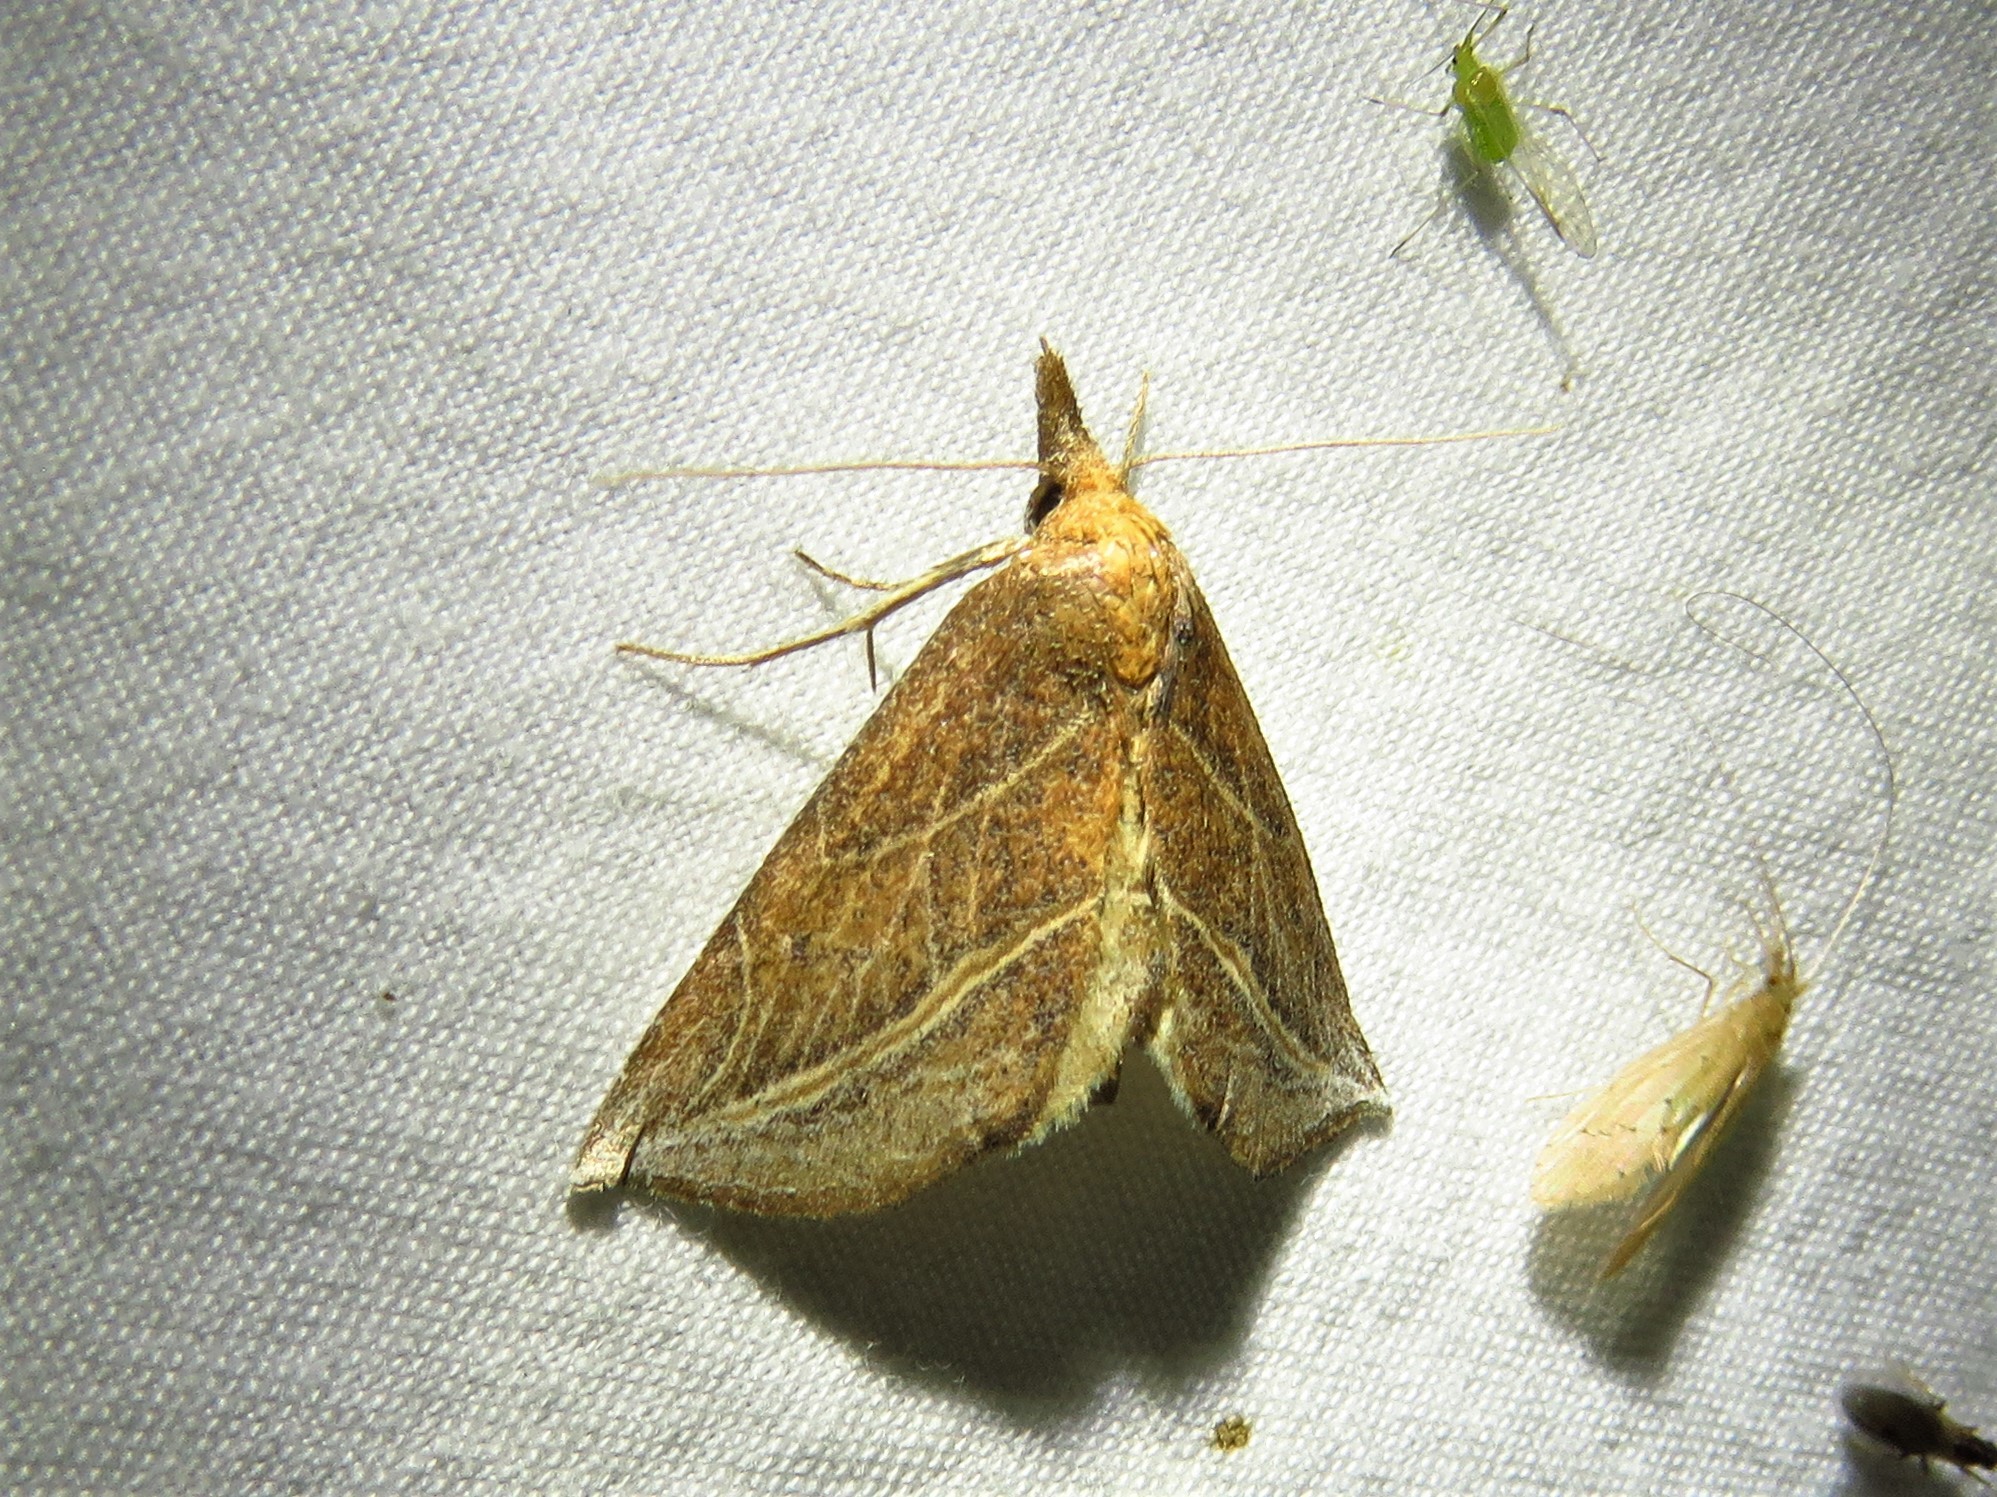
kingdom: Animalia
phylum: Arthropoda
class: Insecta
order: Lepidoptera
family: Erebidae
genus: Phyprosopus
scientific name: Phyprosopus callitrichoides
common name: Curved-lined owlet
